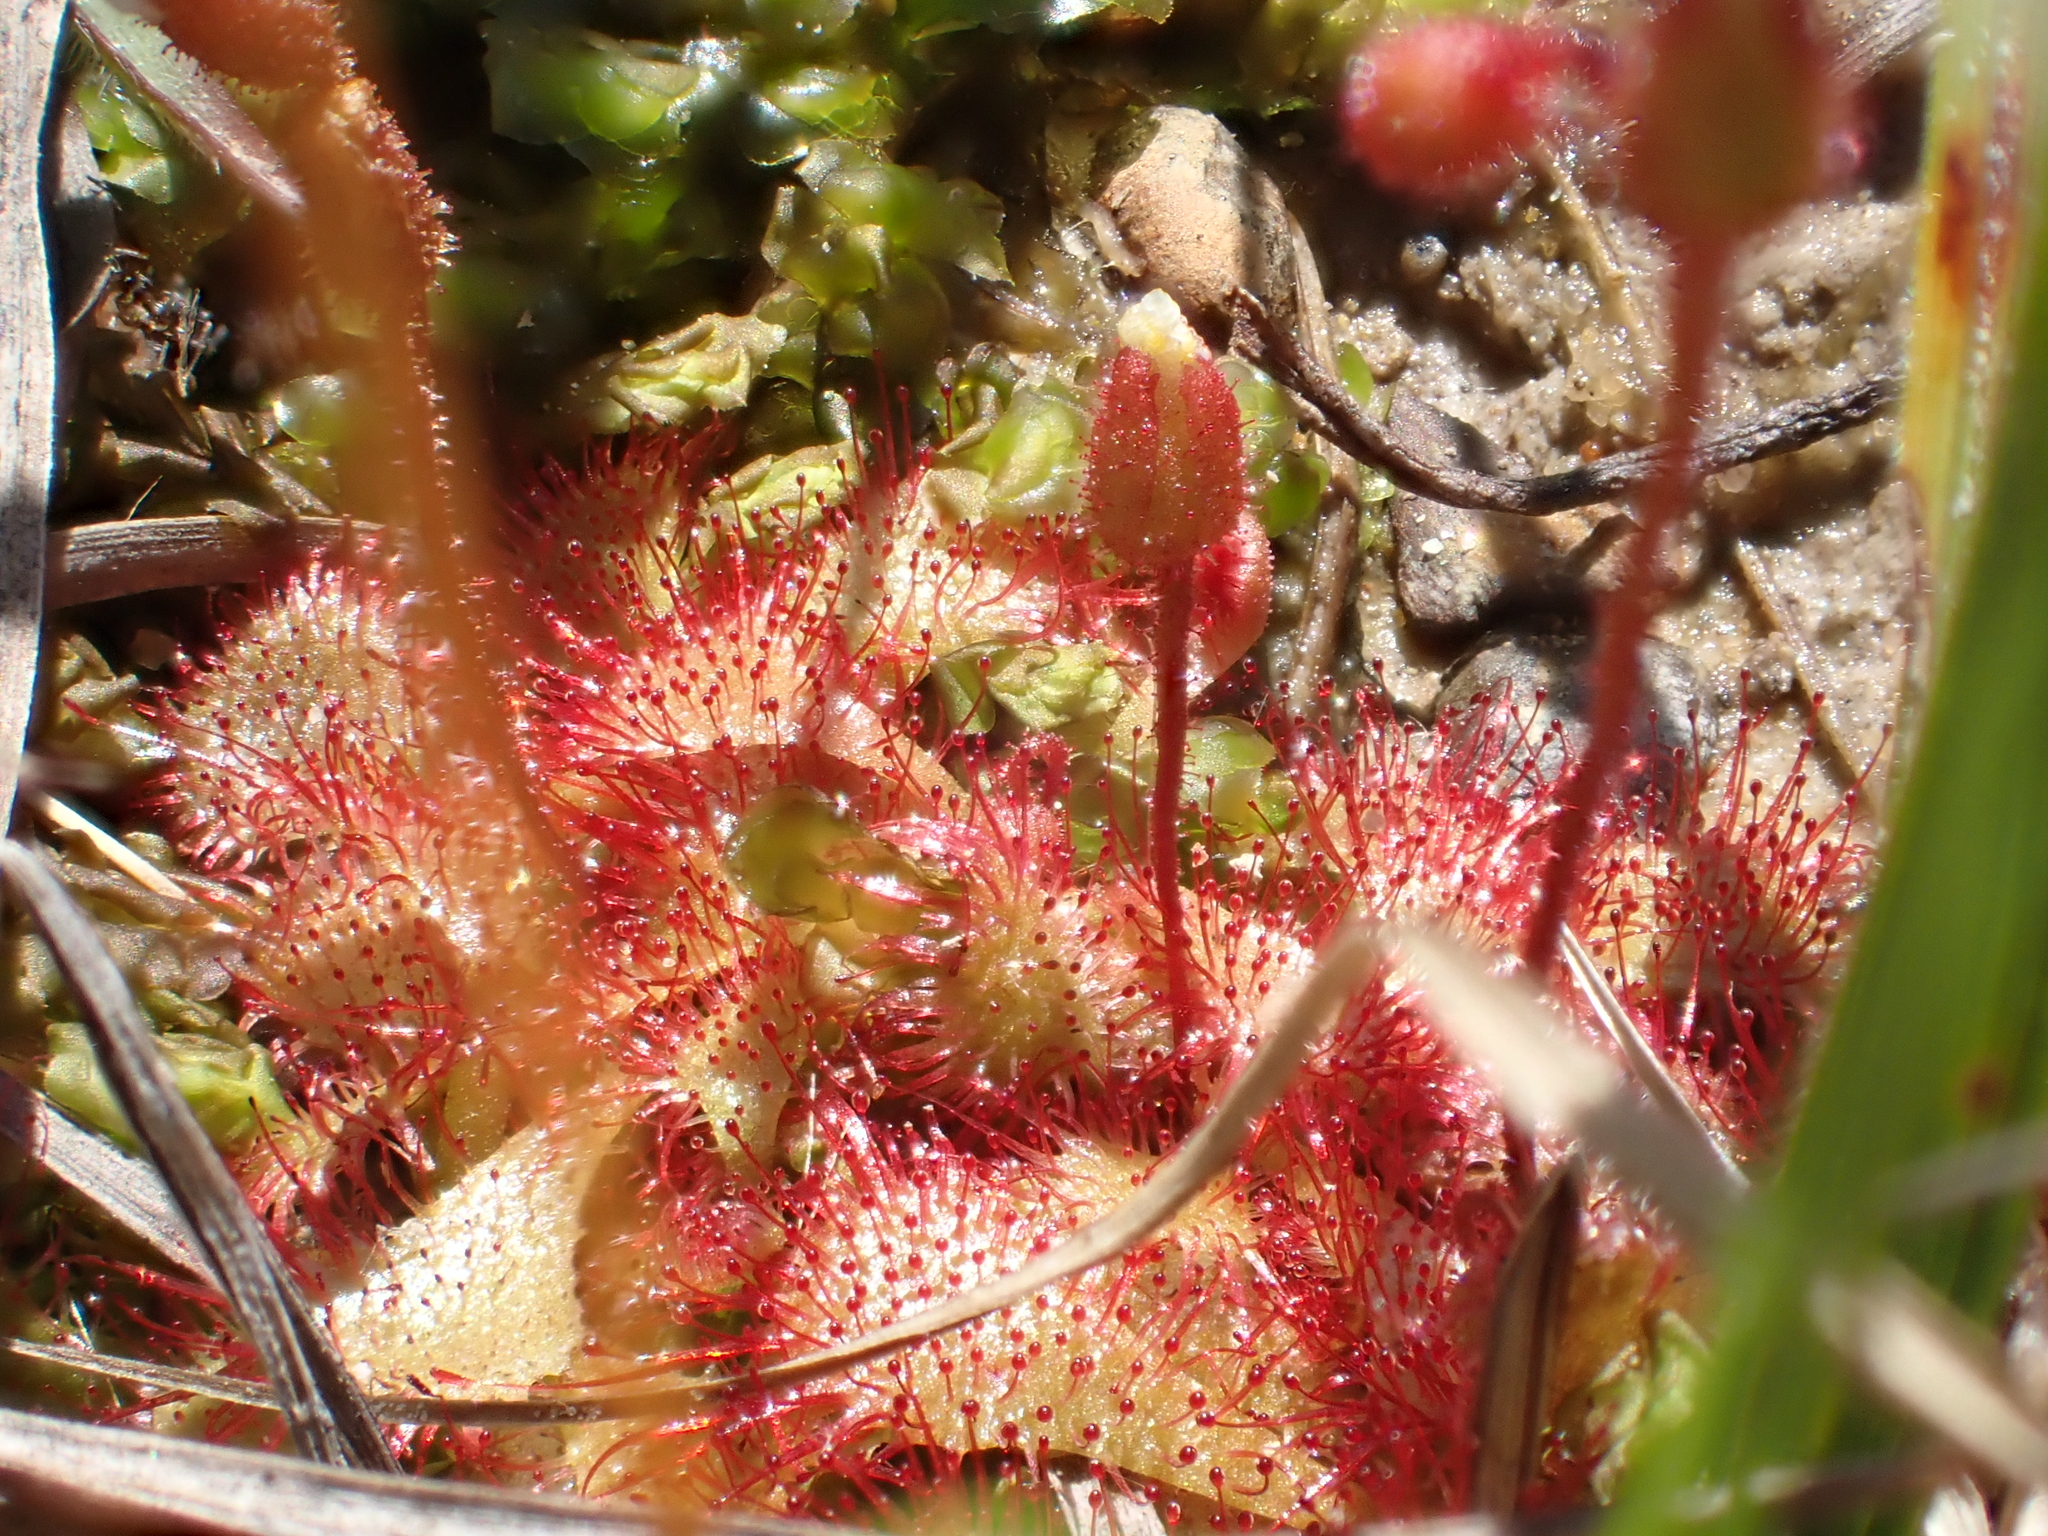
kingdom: Plantae
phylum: Tracheophyta
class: Magnoliopsida
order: Caryophyllales
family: Droseraceae
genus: Drosera
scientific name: Drosera brevifolia
